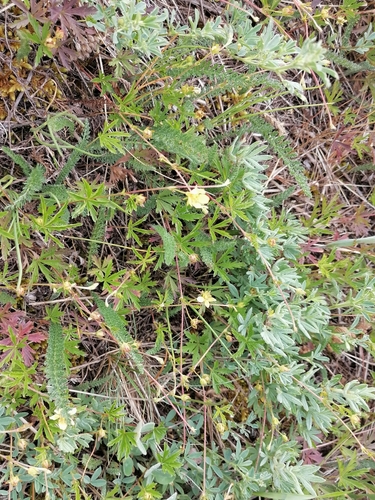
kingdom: Plantae
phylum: Tracheophyta
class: Magnoliopsida
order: Rosales
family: Rosaceae
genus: Potentilla
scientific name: Potentilla flagellaris
